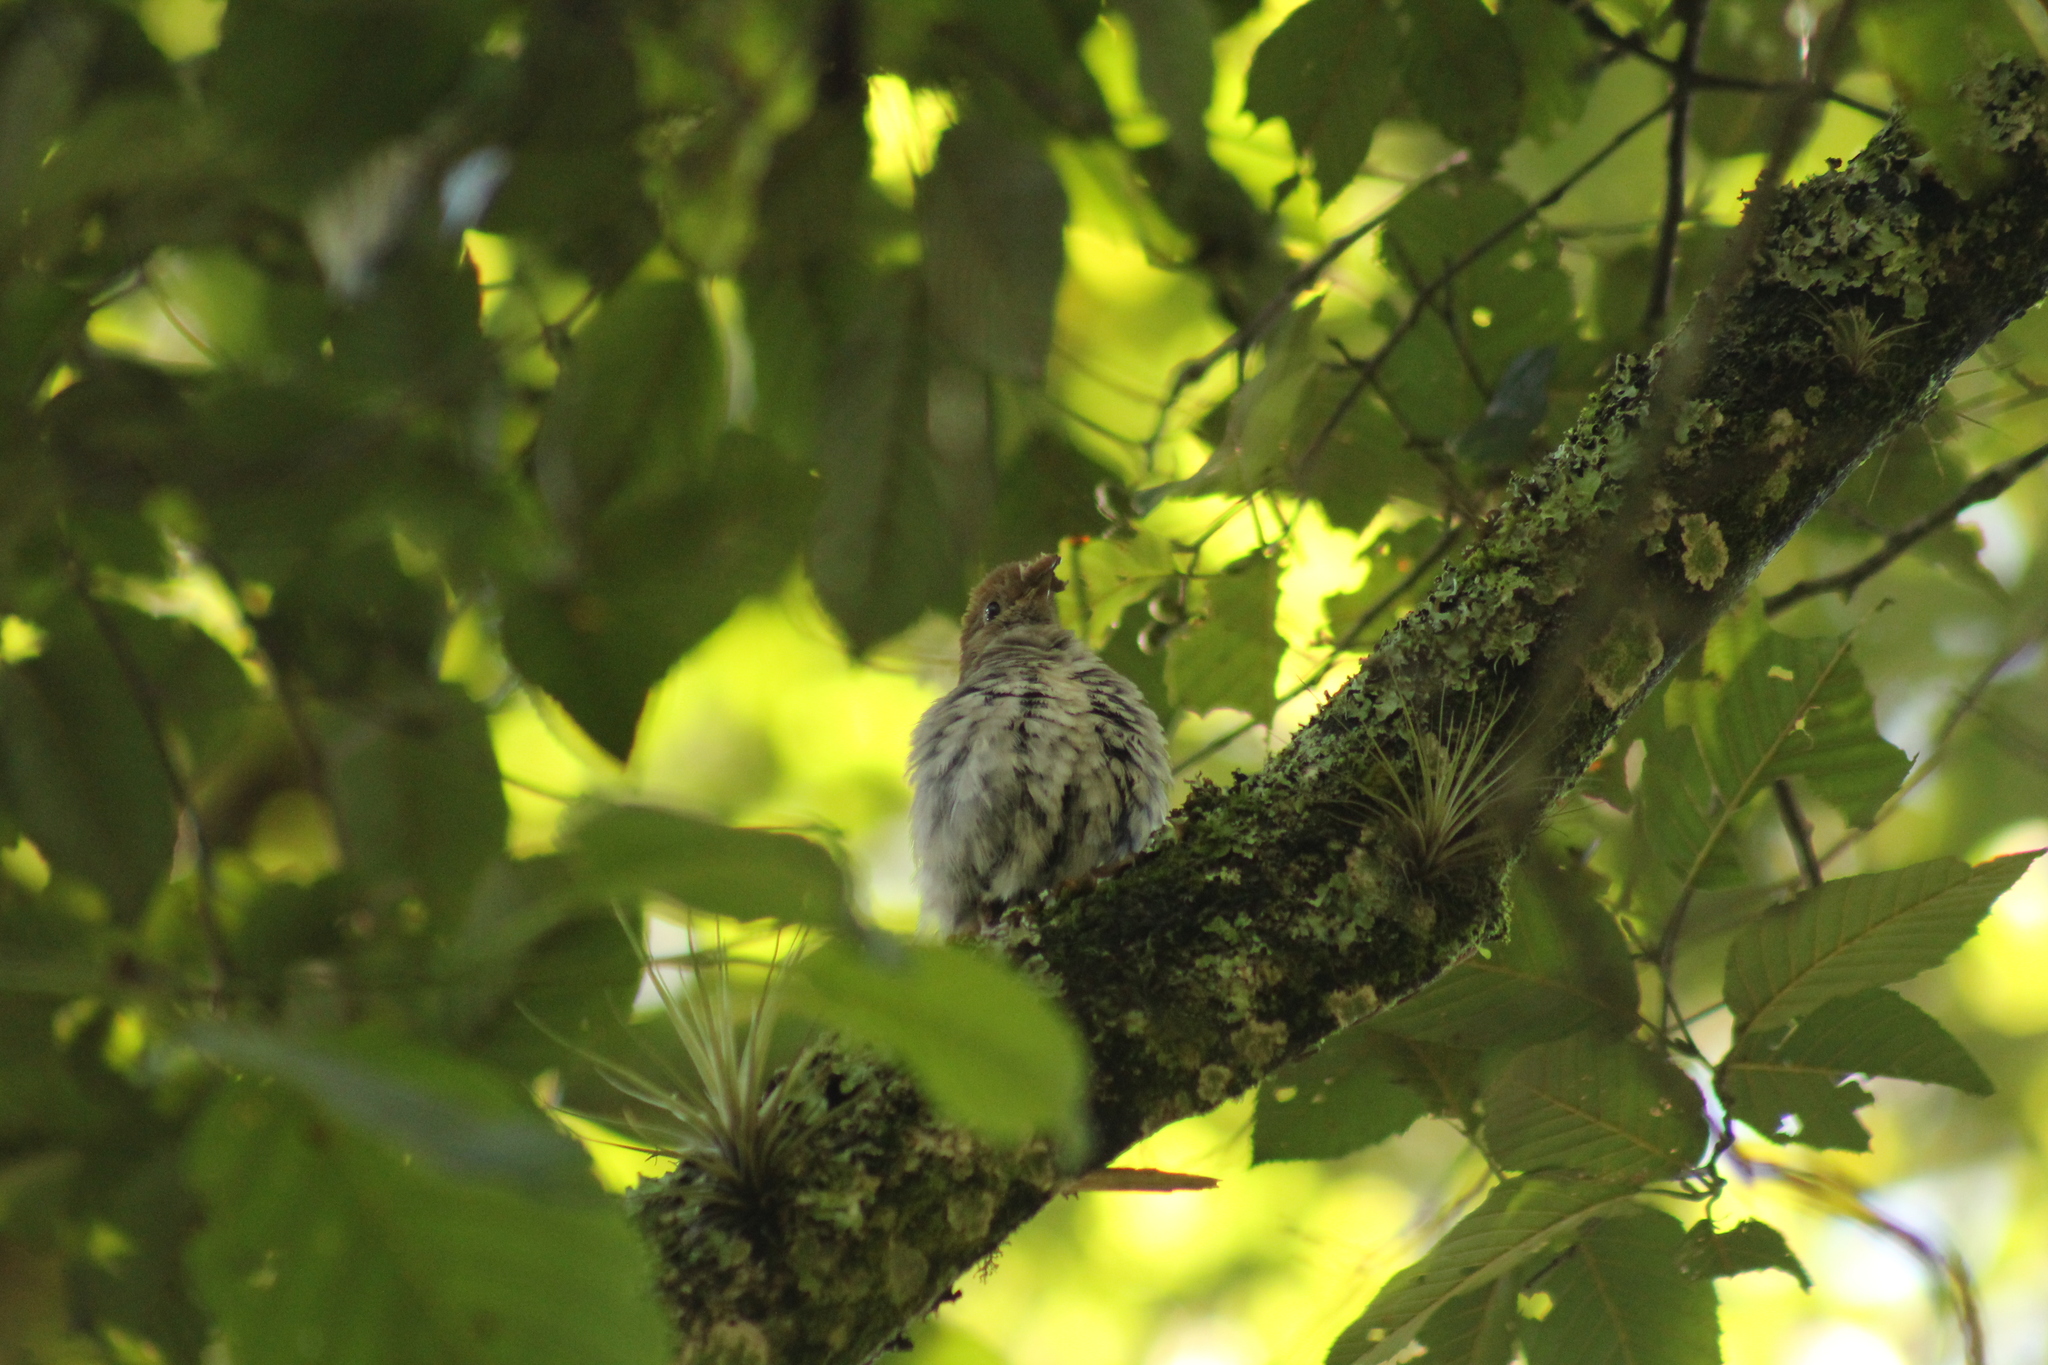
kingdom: Animalia
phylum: Chordata
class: Aves
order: Passeriformes
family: Turdidae
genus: Catharus
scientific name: Catharus frantzii
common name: Ruddy-capped nightingale-thrush
